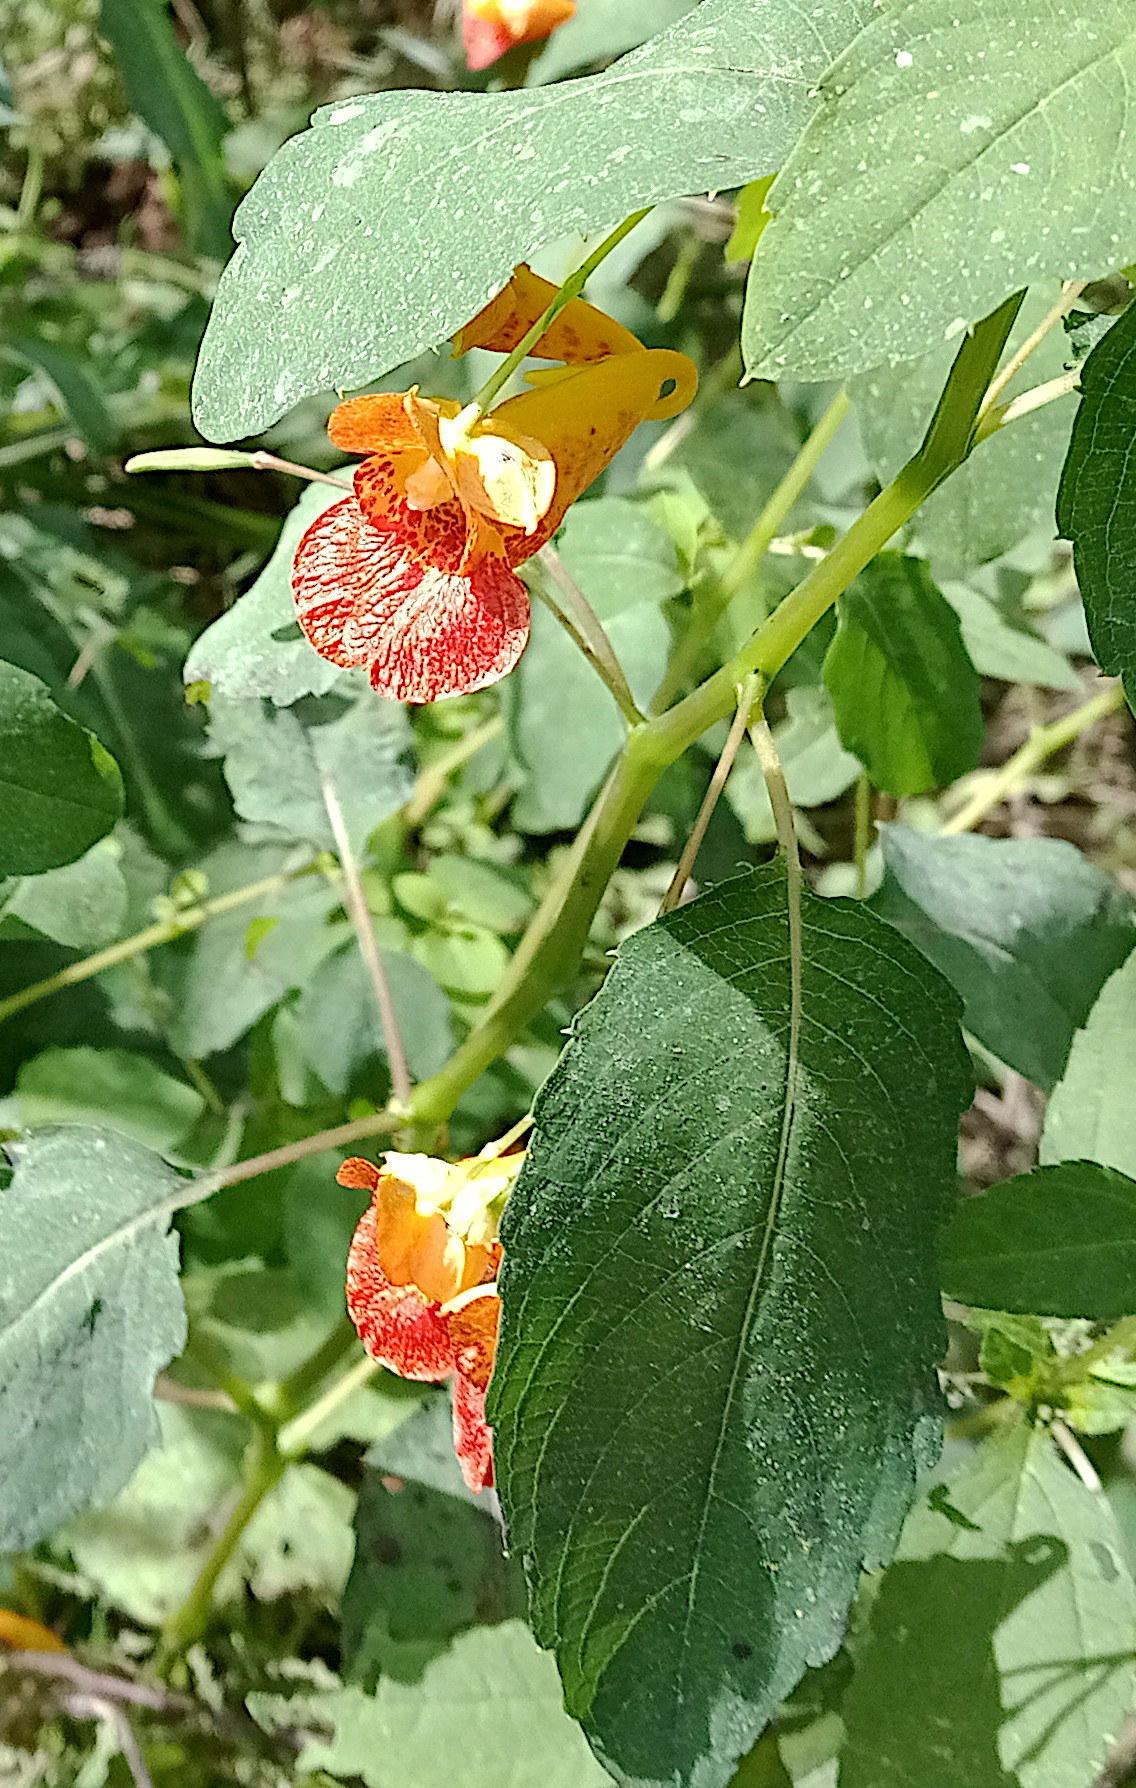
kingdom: Plantae
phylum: Tracheophyta
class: Magnoliopsida
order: Ericales
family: Balsaminaceae
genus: Impatiens
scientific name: Impatiens capensis
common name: Orange balsam
